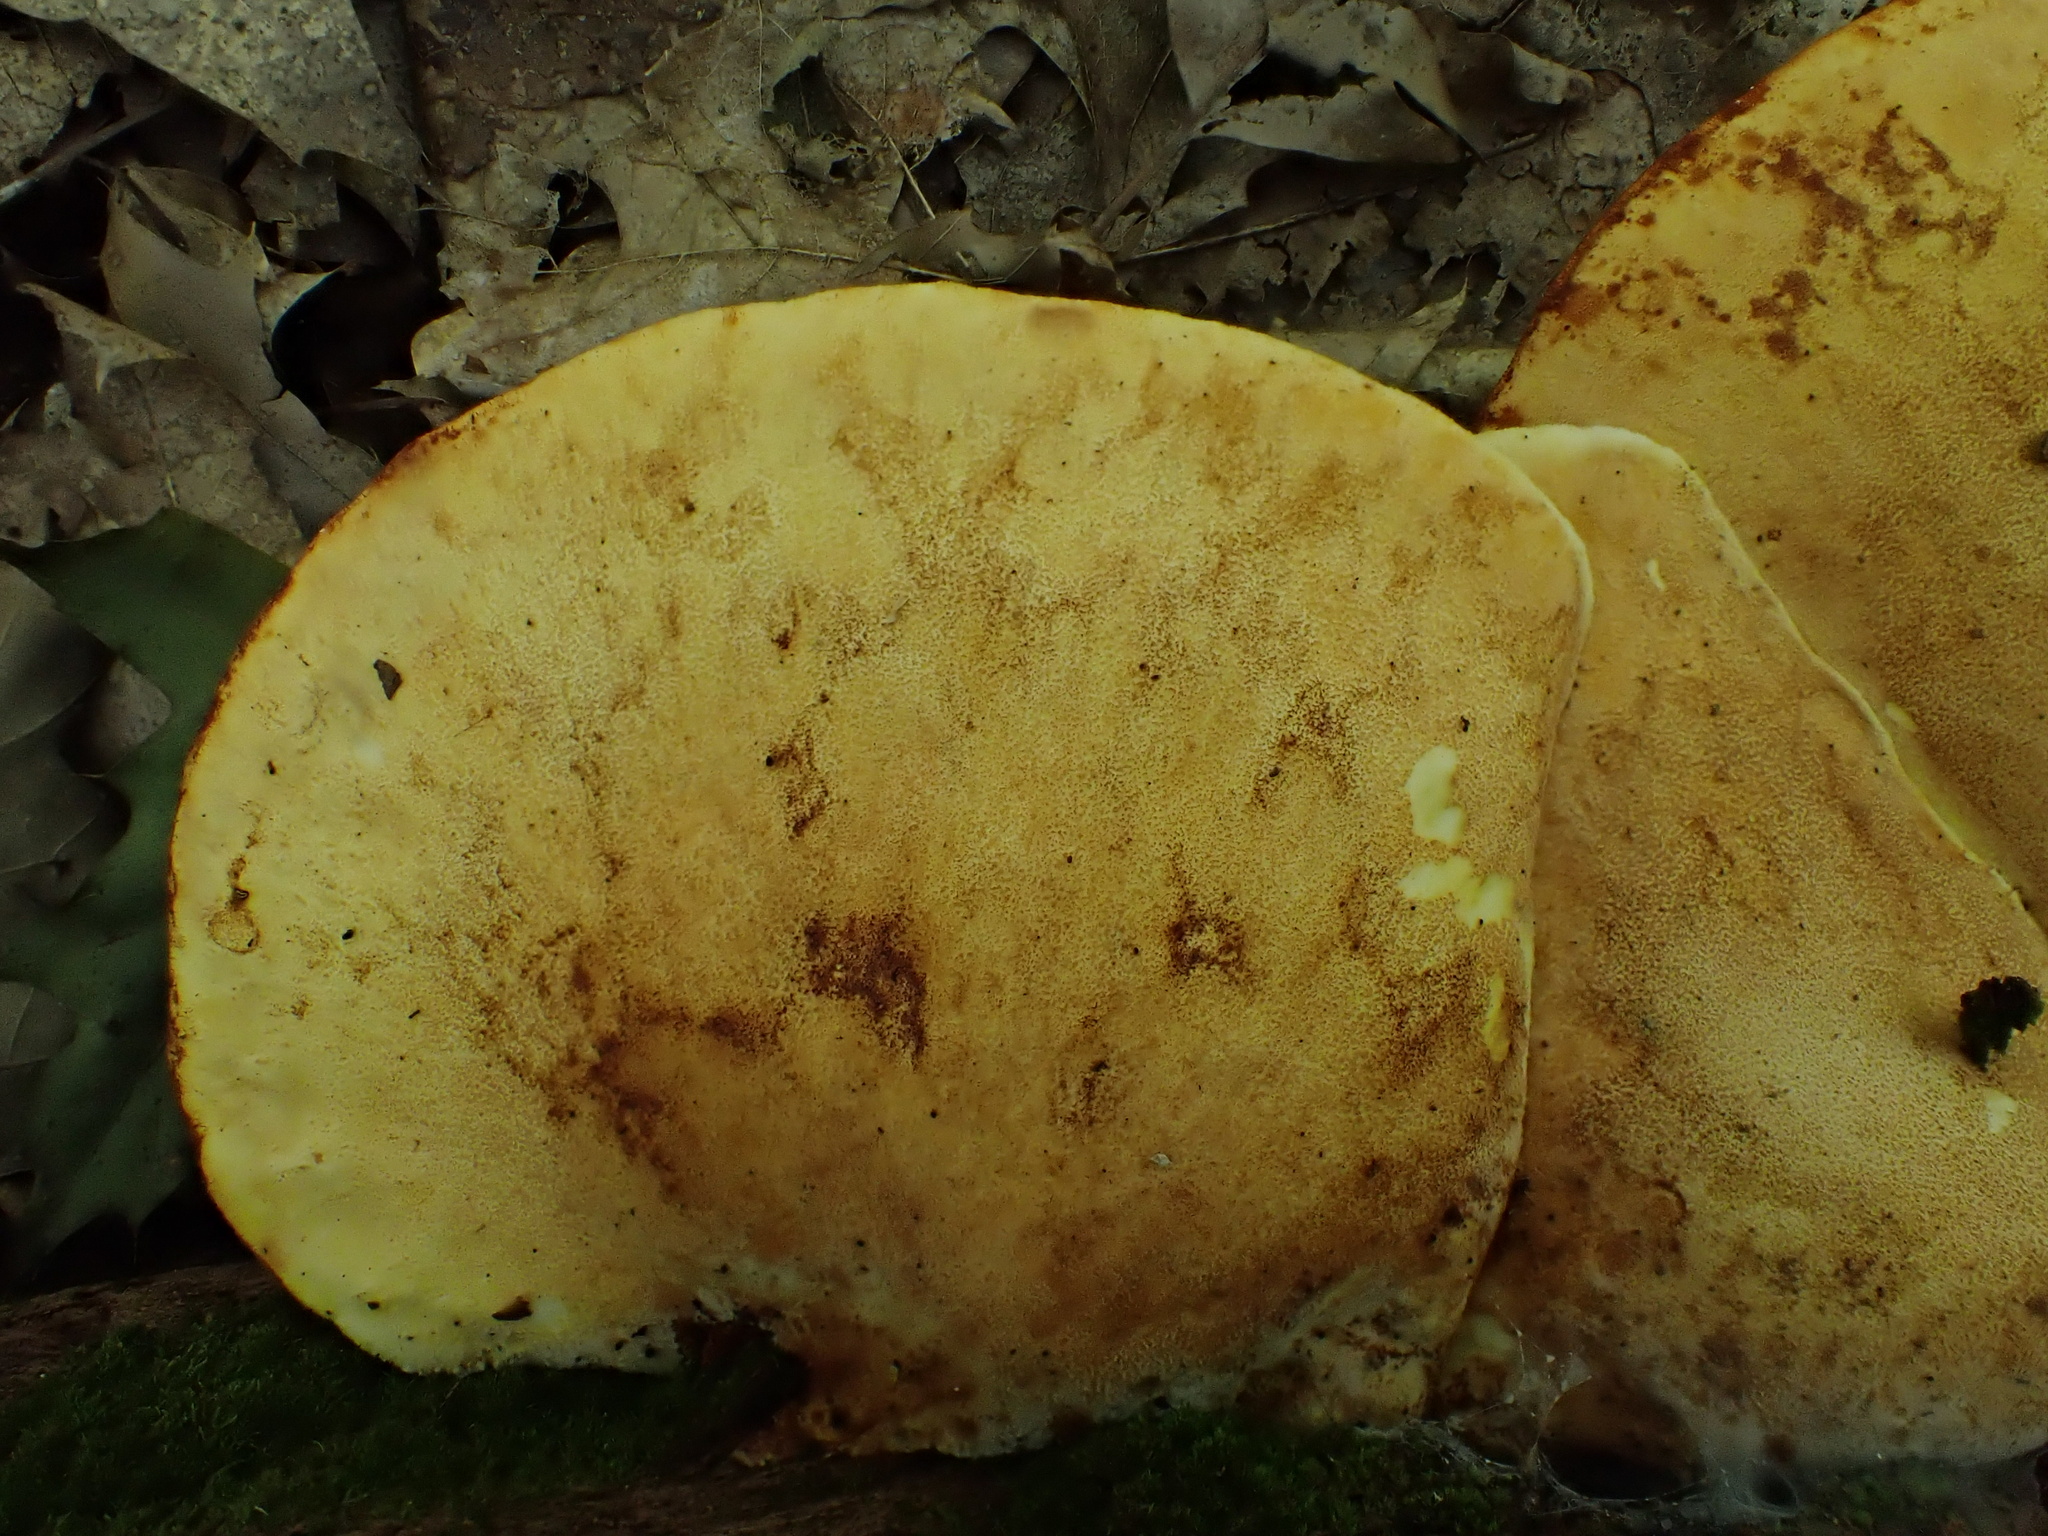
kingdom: Fungi
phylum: Basidiomycota
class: Agaricomycetes
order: Polyporales
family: Fomitopsidaceae
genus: Fomitopsis
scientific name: Fomitopsis
